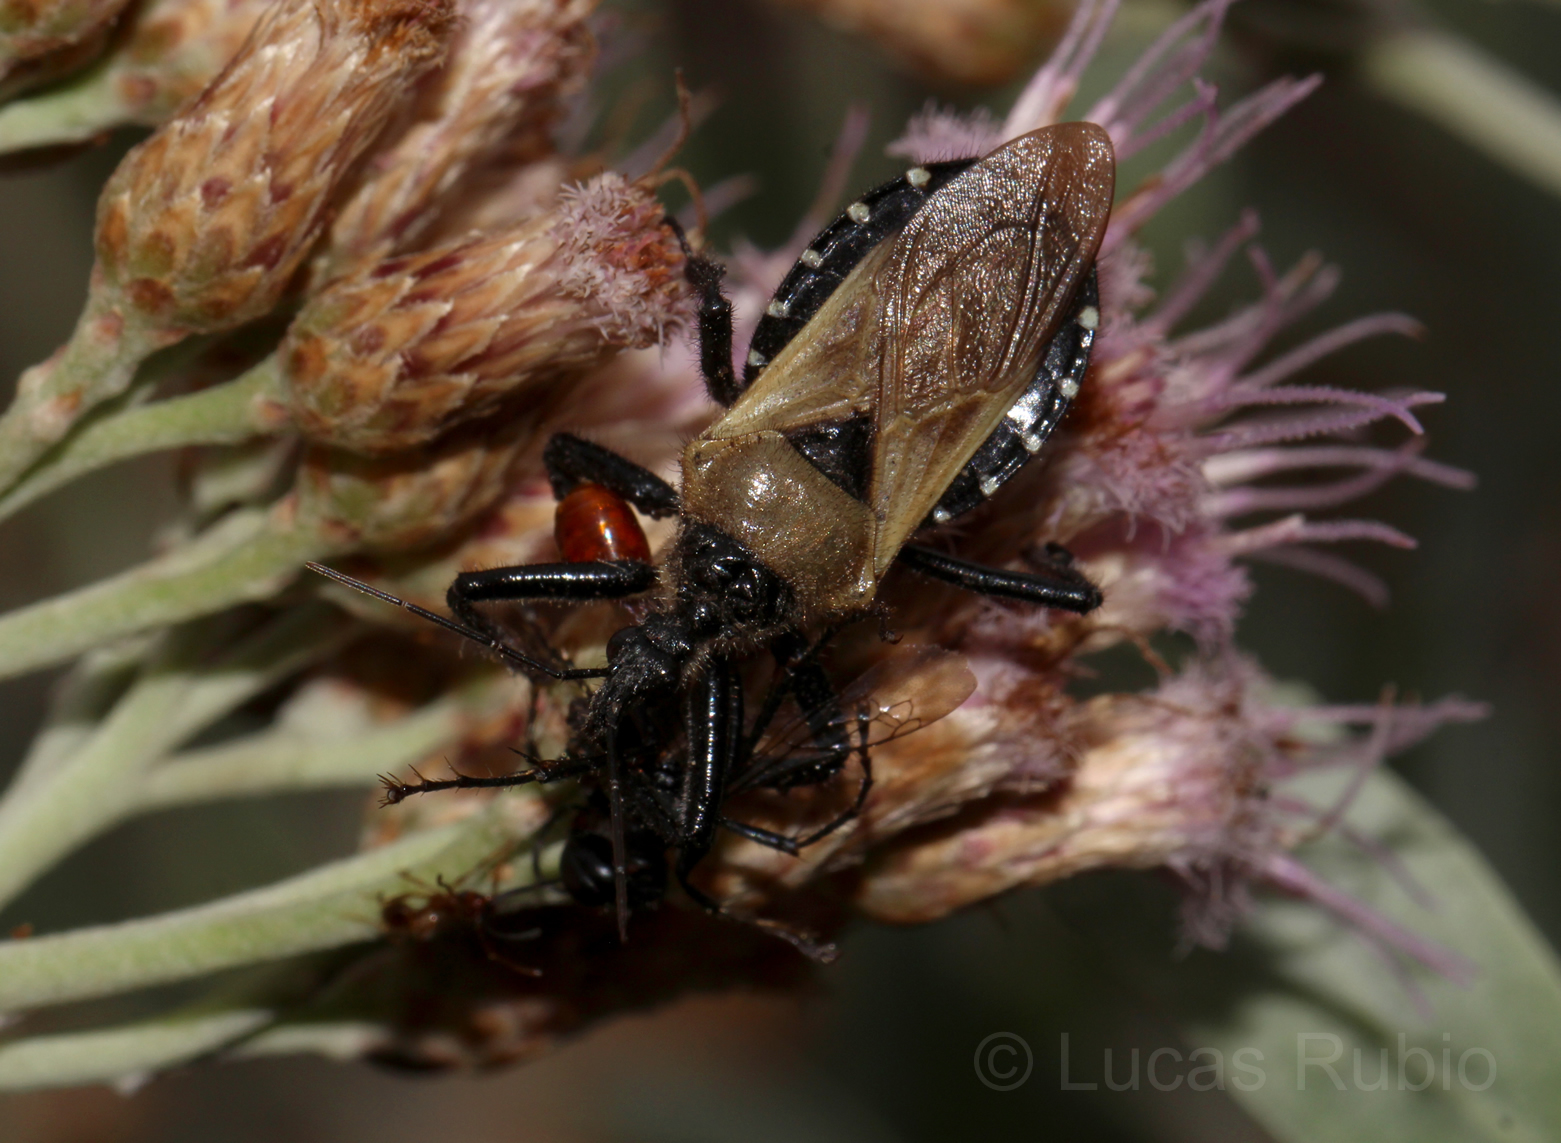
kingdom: Animalia
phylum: Arthropoda
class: Insecta
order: Hemiptera
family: Reduviidae
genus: Apiomerus
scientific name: Apiomerus barbiellinii
